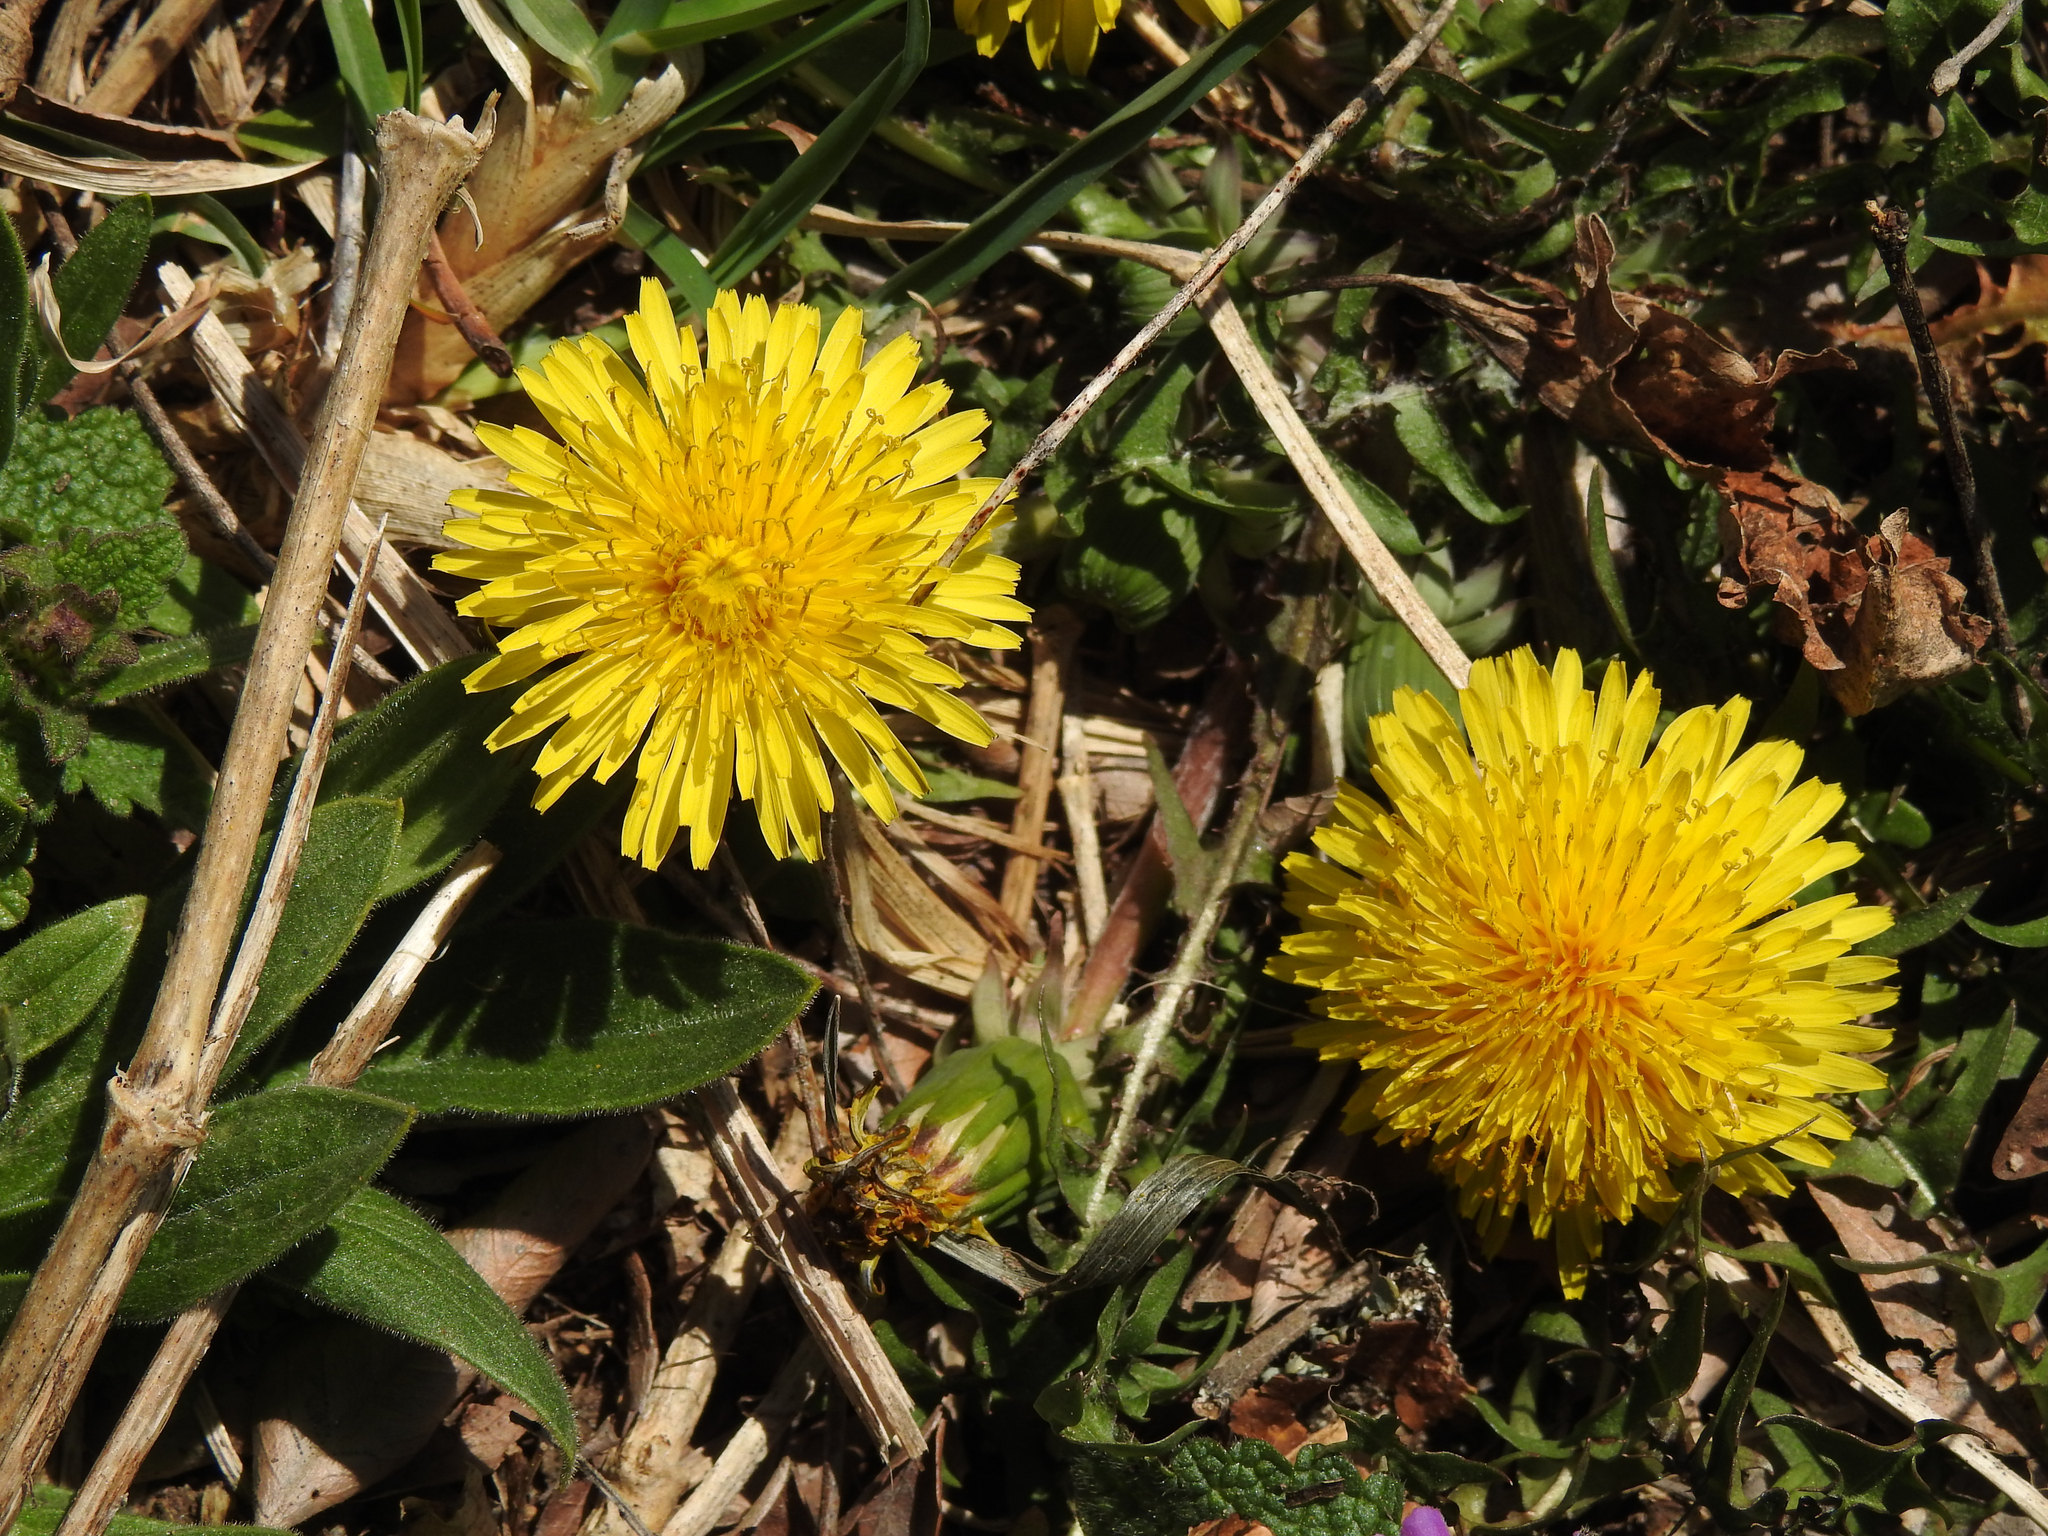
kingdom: Plantae
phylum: Tracheophyta
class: Magnoliopsida
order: Asterales
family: Asteraceae
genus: Taraxacum
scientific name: Taraxacum officinale
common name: Common dandelion
